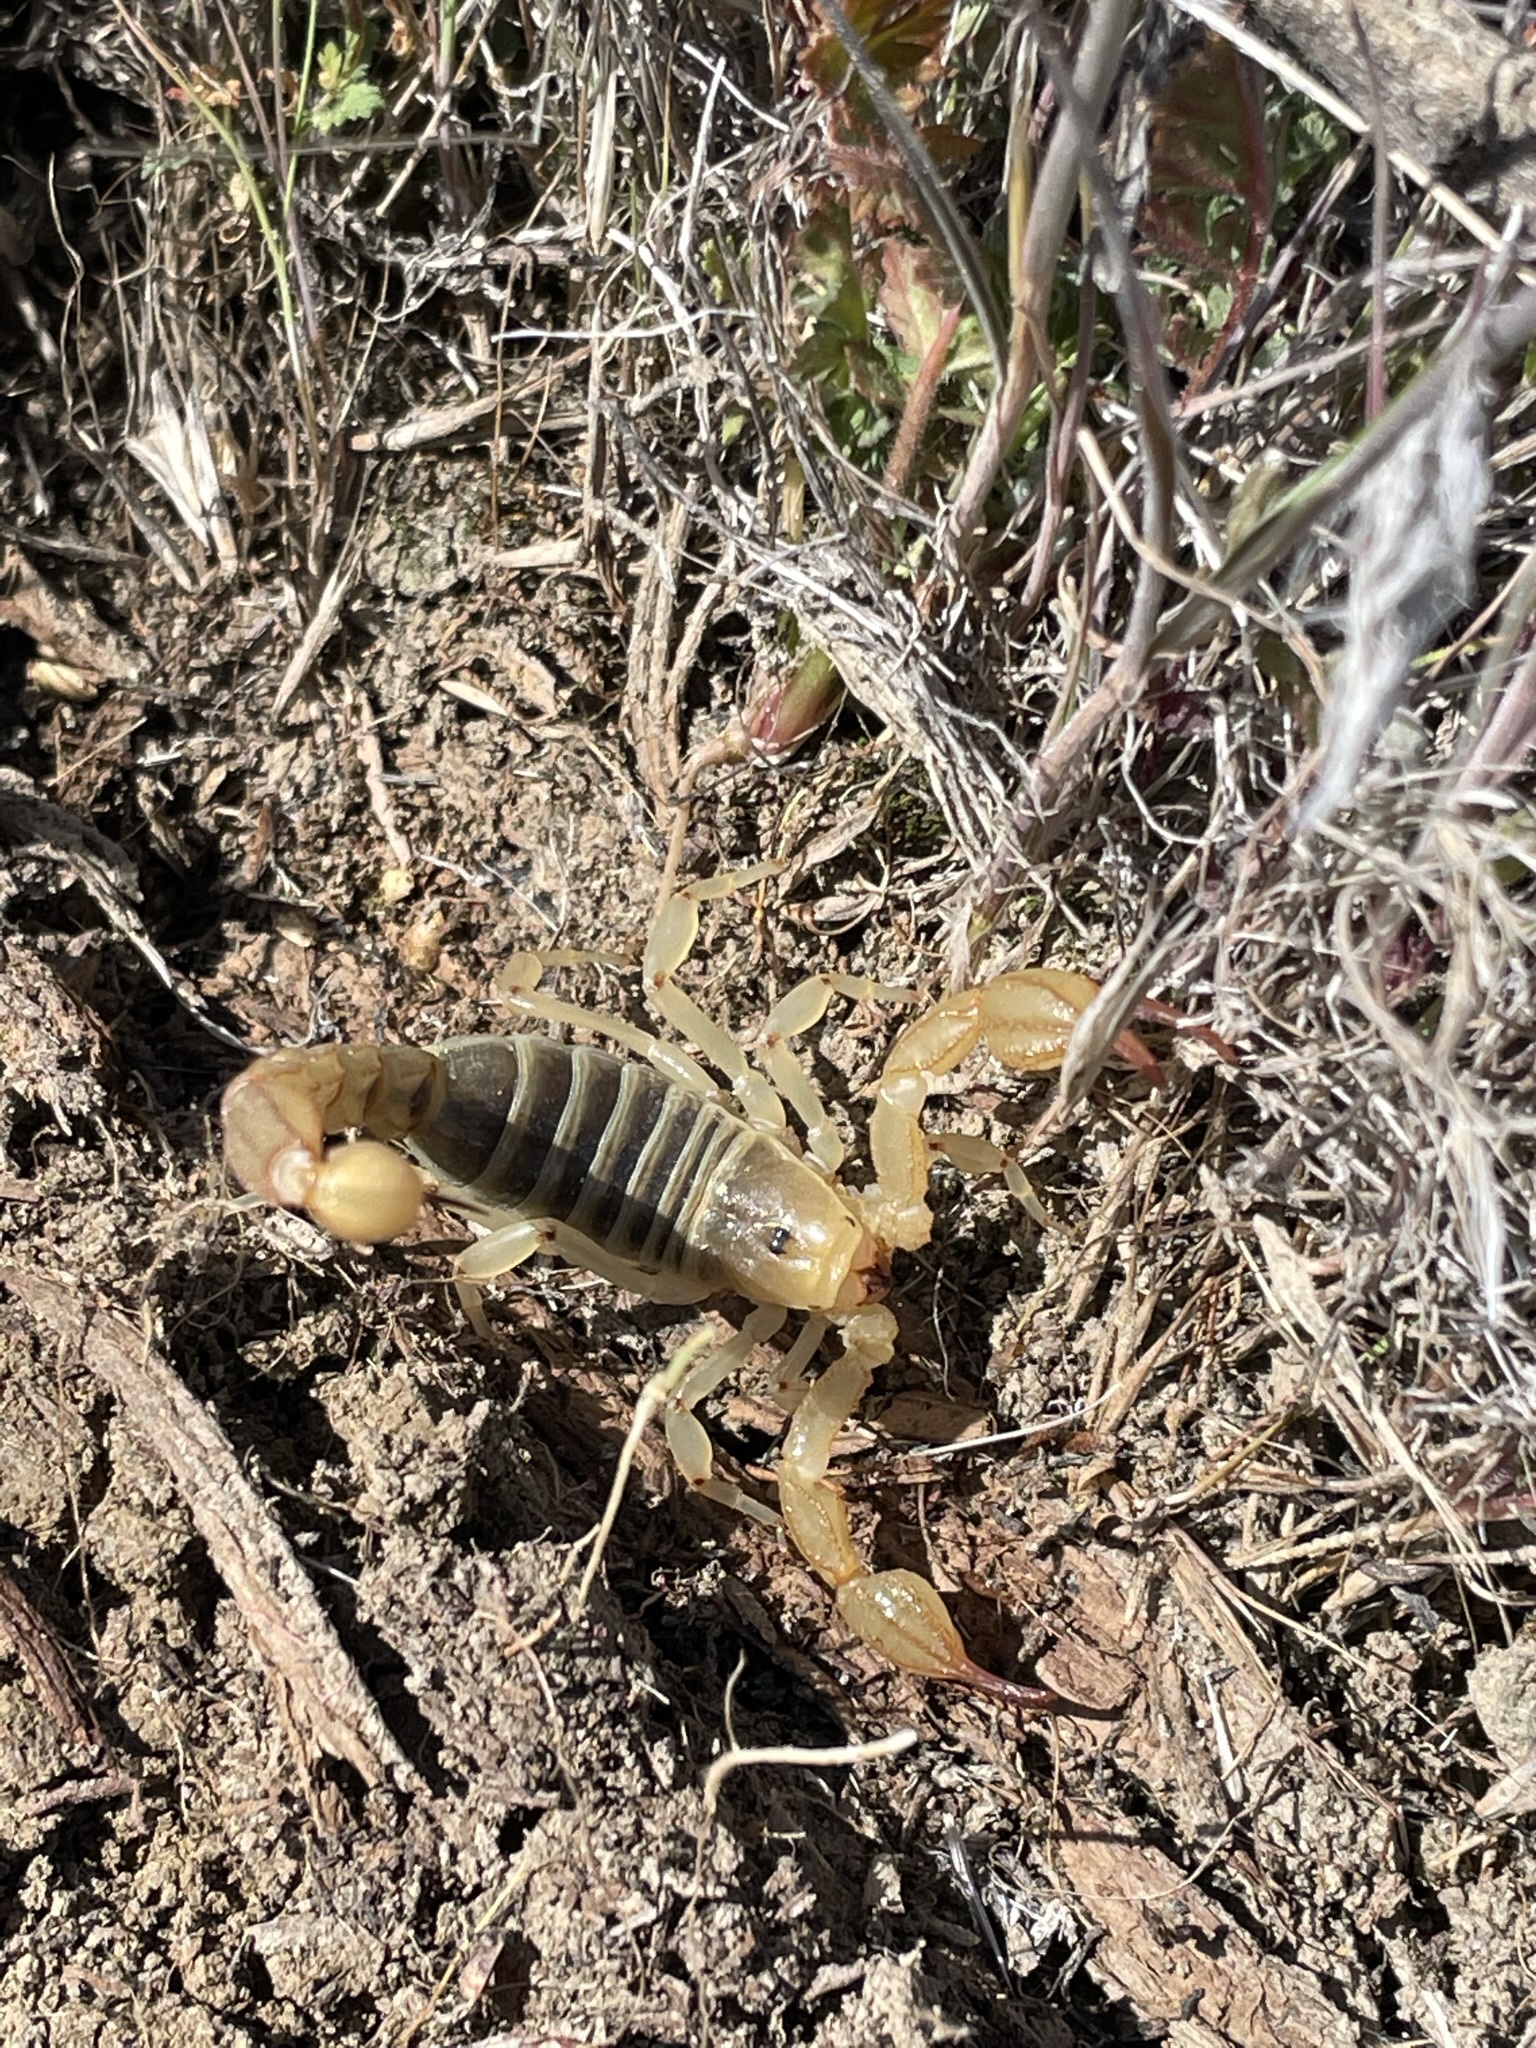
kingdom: Animalia
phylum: Arthropoda
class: Arachnida
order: Scorpiones
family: Vaejovidae
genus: Paruroctonus
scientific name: Paruroctonus soda
